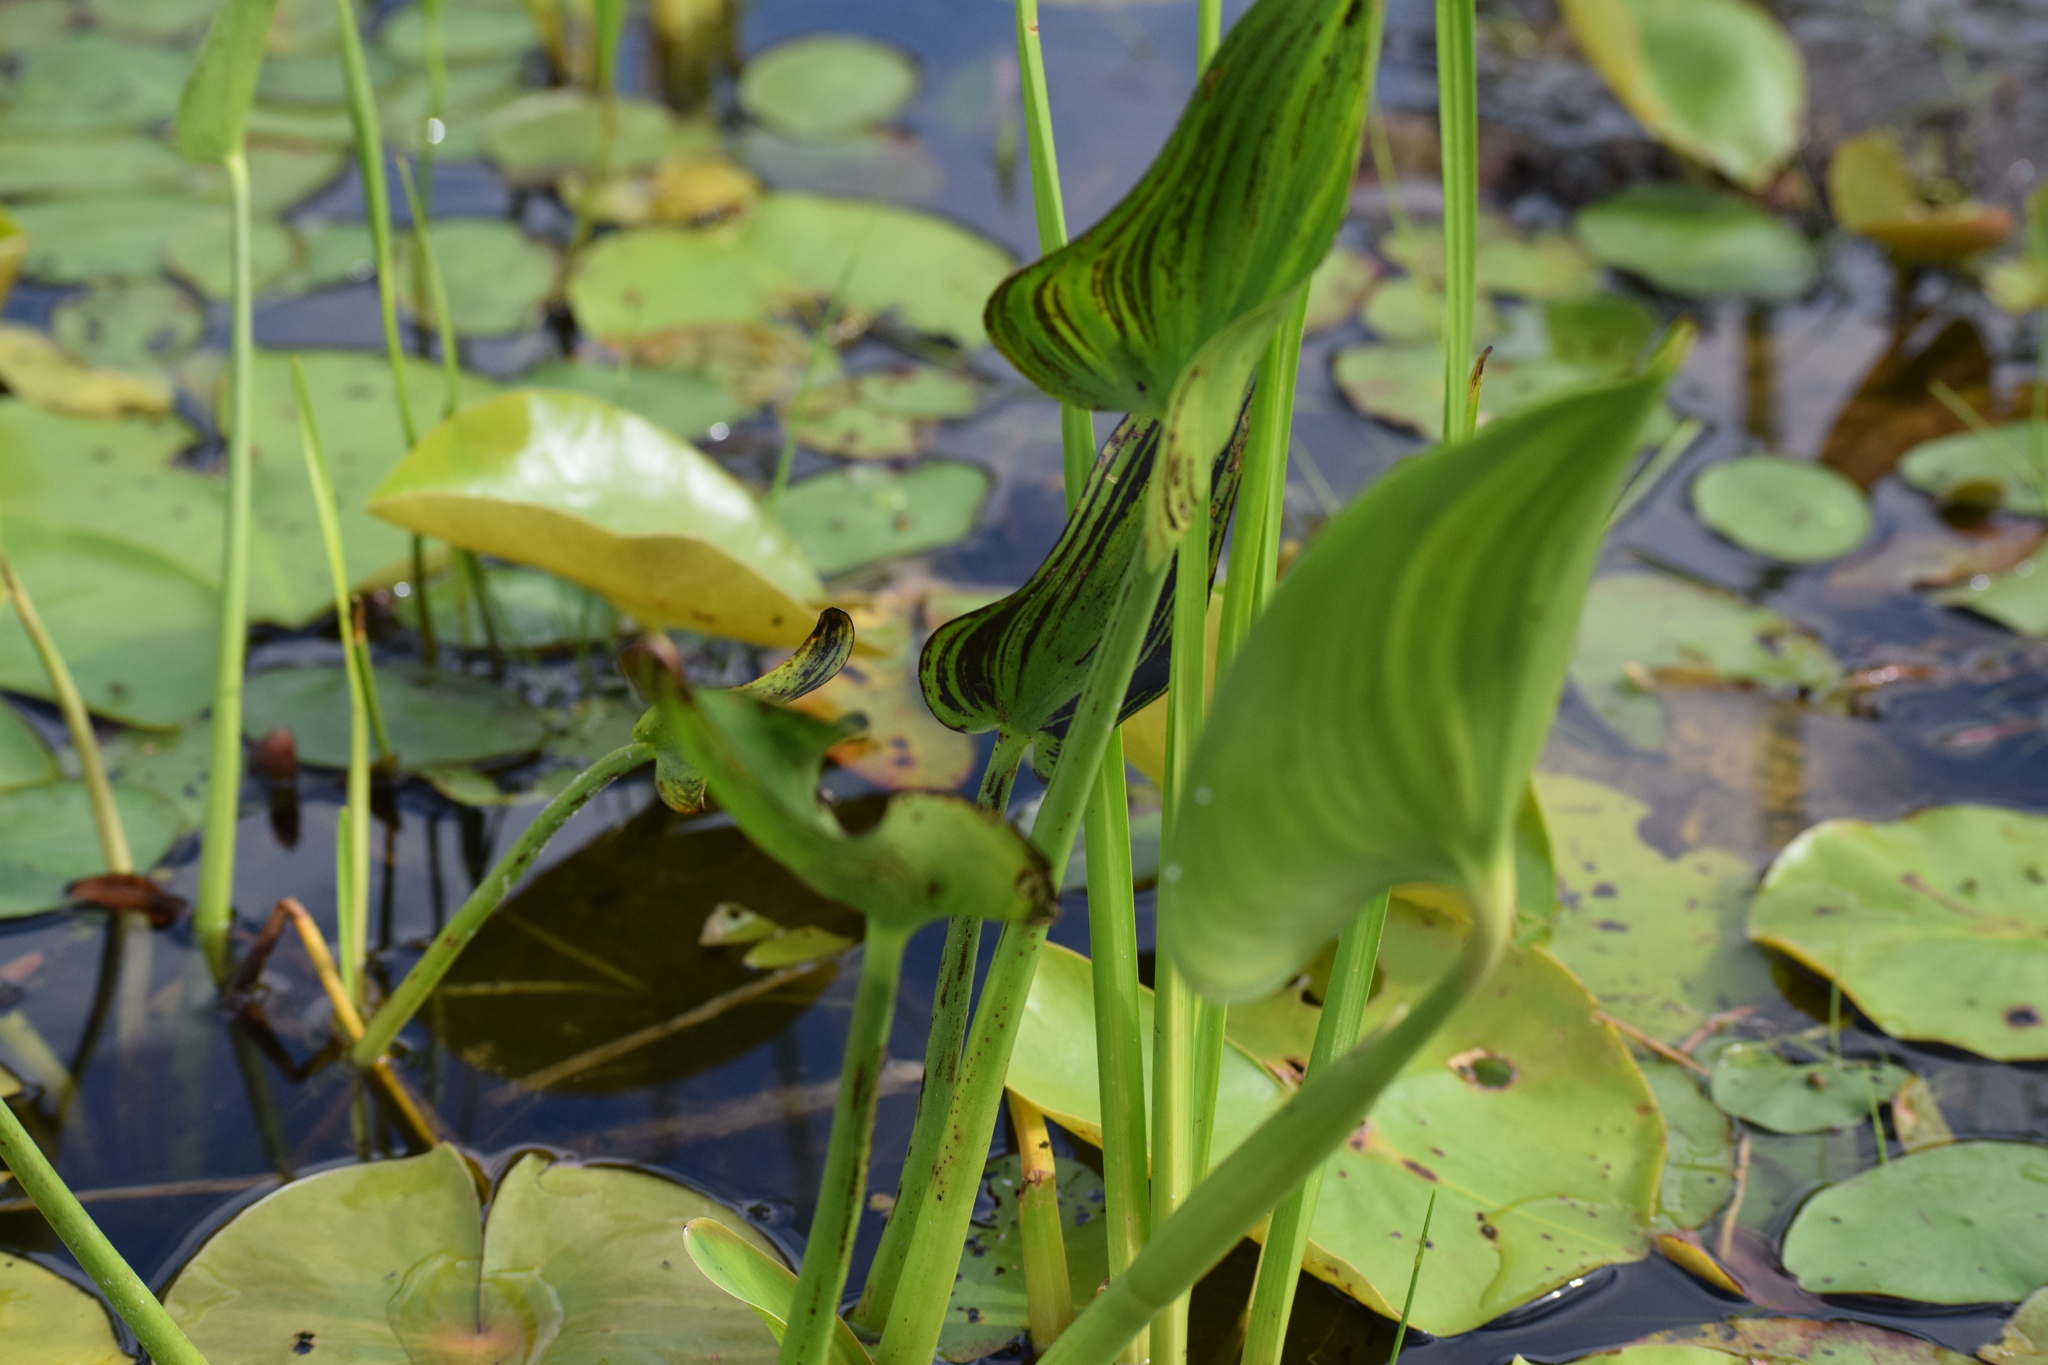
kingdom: Plantae
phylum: Tracheophyta
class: Liliopsida
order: Commelinales
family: Pontederiaceae
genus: Pontederia
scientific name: Pontederia cordata
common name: Pickerelweed
